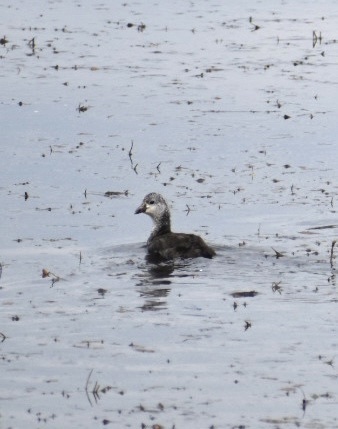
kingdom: Animalia
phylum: Chordata
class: Aves
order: Gruiformes
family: Rallidae
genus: Fulica
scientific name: Fulica americana
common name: American coot
